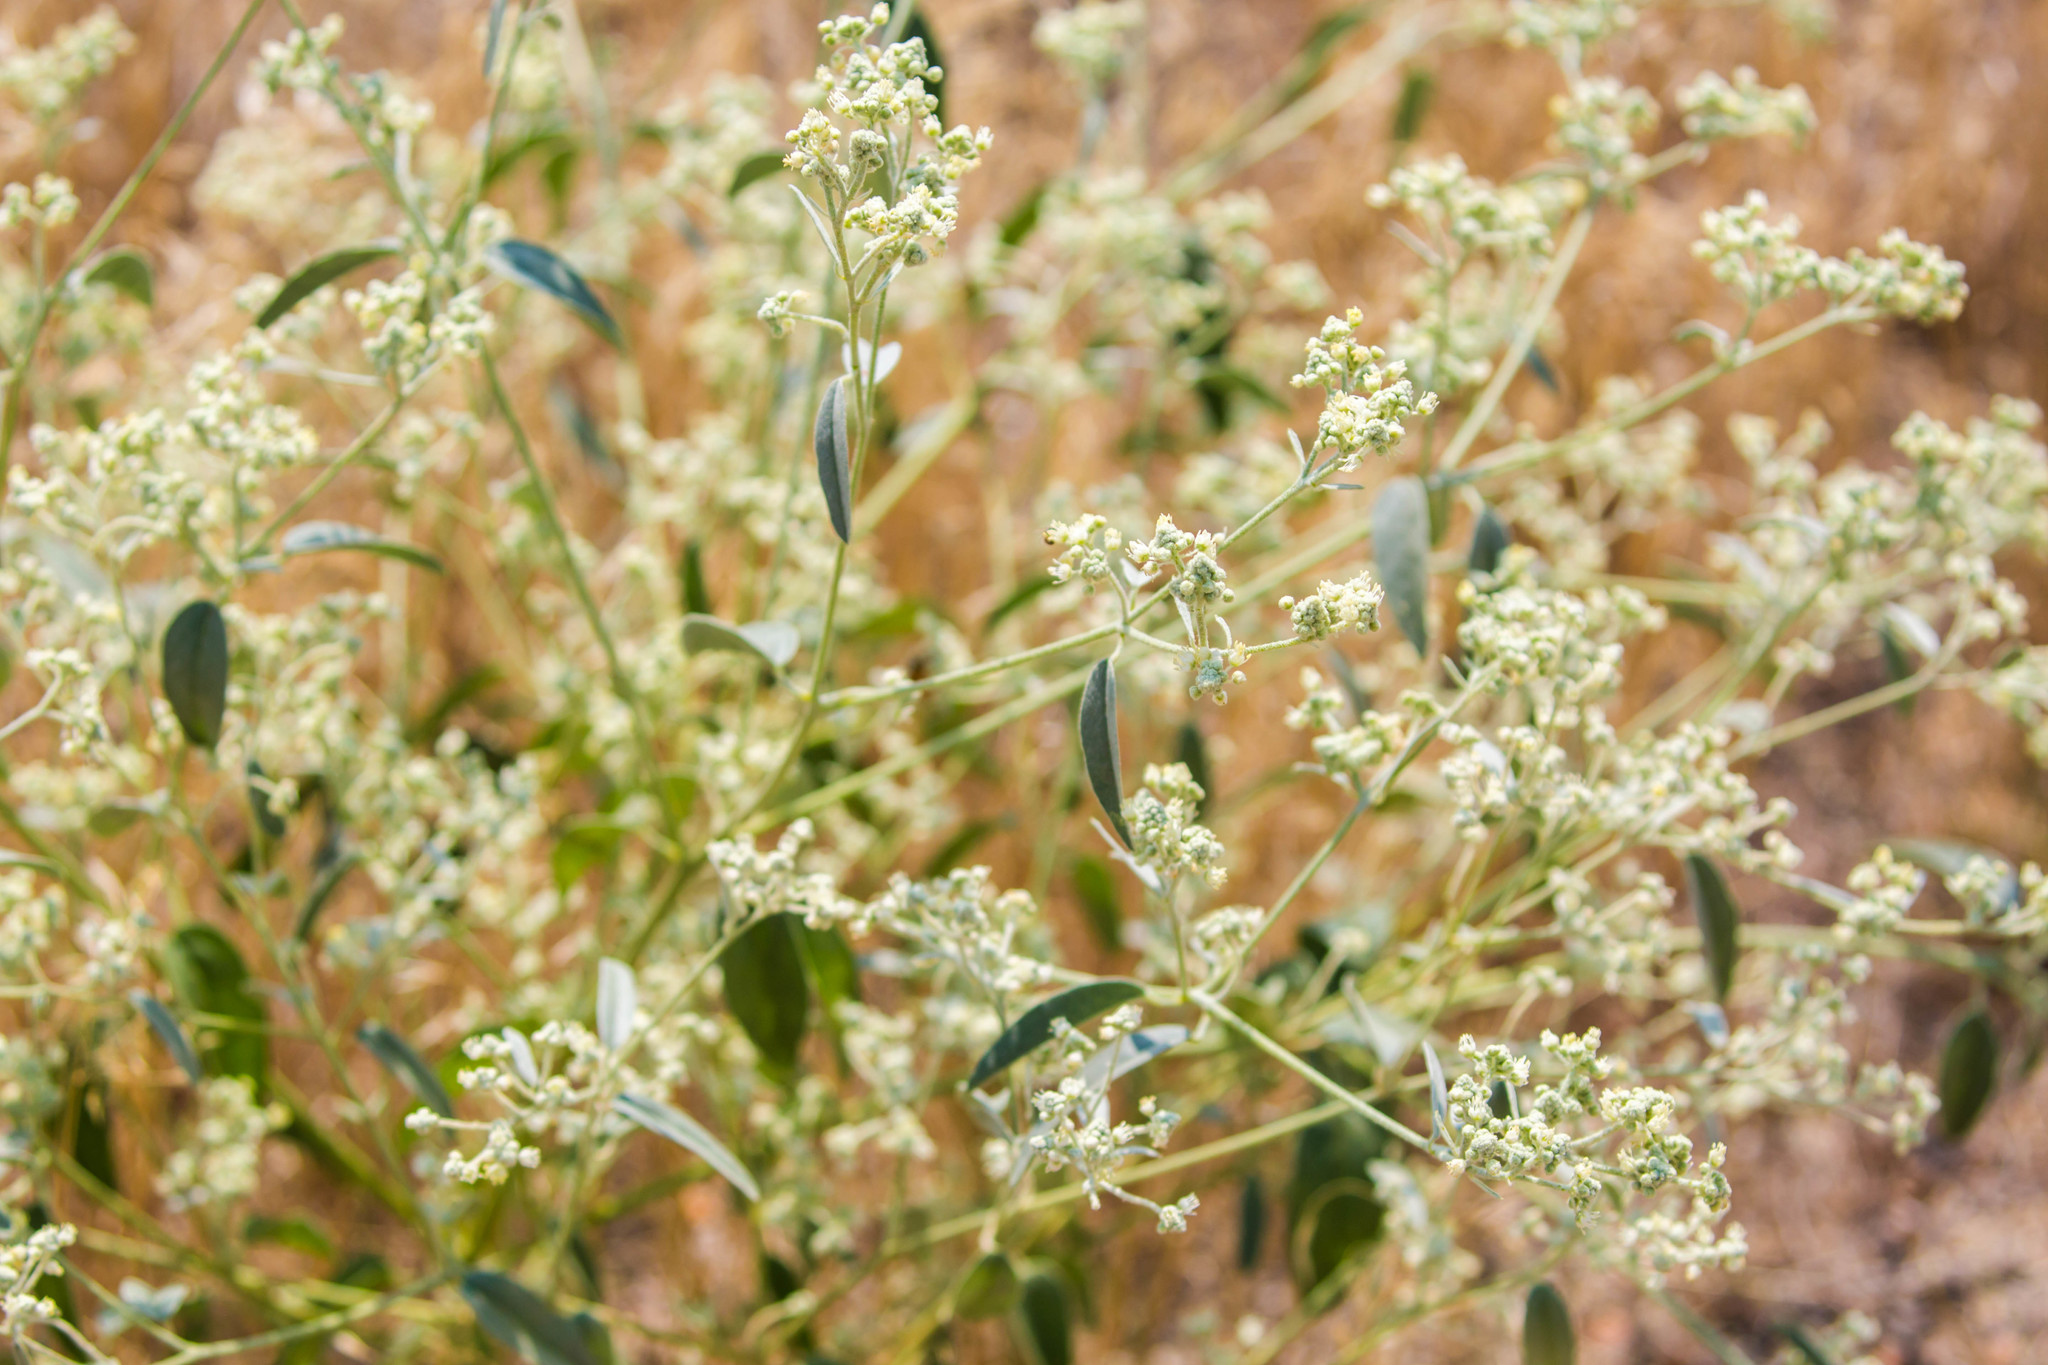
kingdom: Plantae
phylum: Tracheophyta
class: Magnoliopsida
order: Malpighiales
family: Euphorbiaceae
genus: Croton
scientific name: Croton texensis
